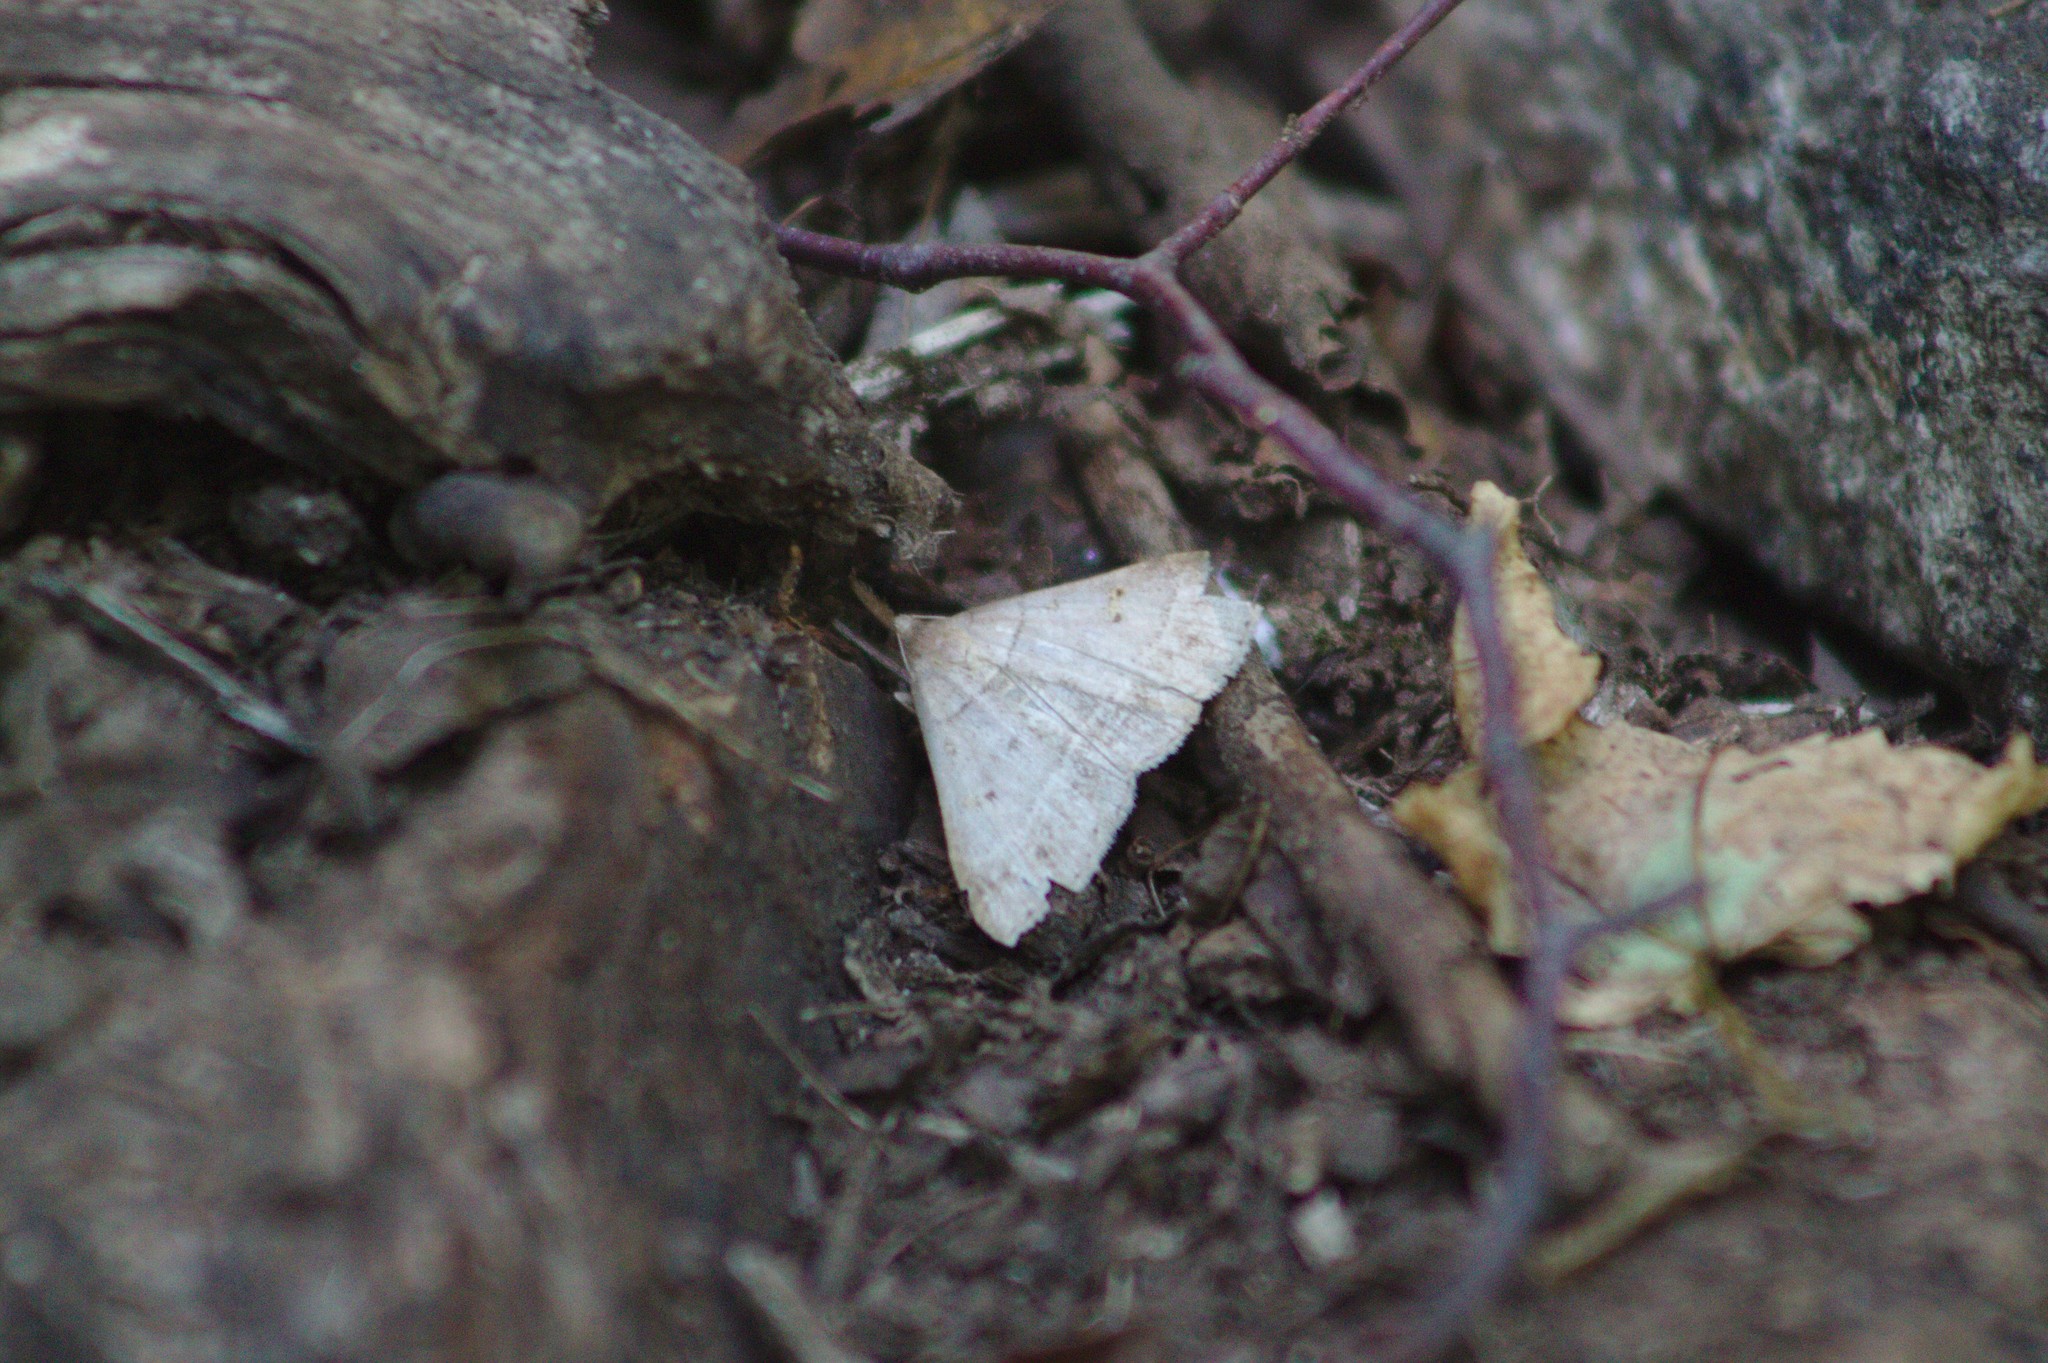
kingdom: Animalia
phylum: Arthropoda
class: Insecta
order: Lepidoptera
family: Erebidae
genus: Renia
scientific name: Renia flavipunctalis
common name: Yellow-spotted renia moth
